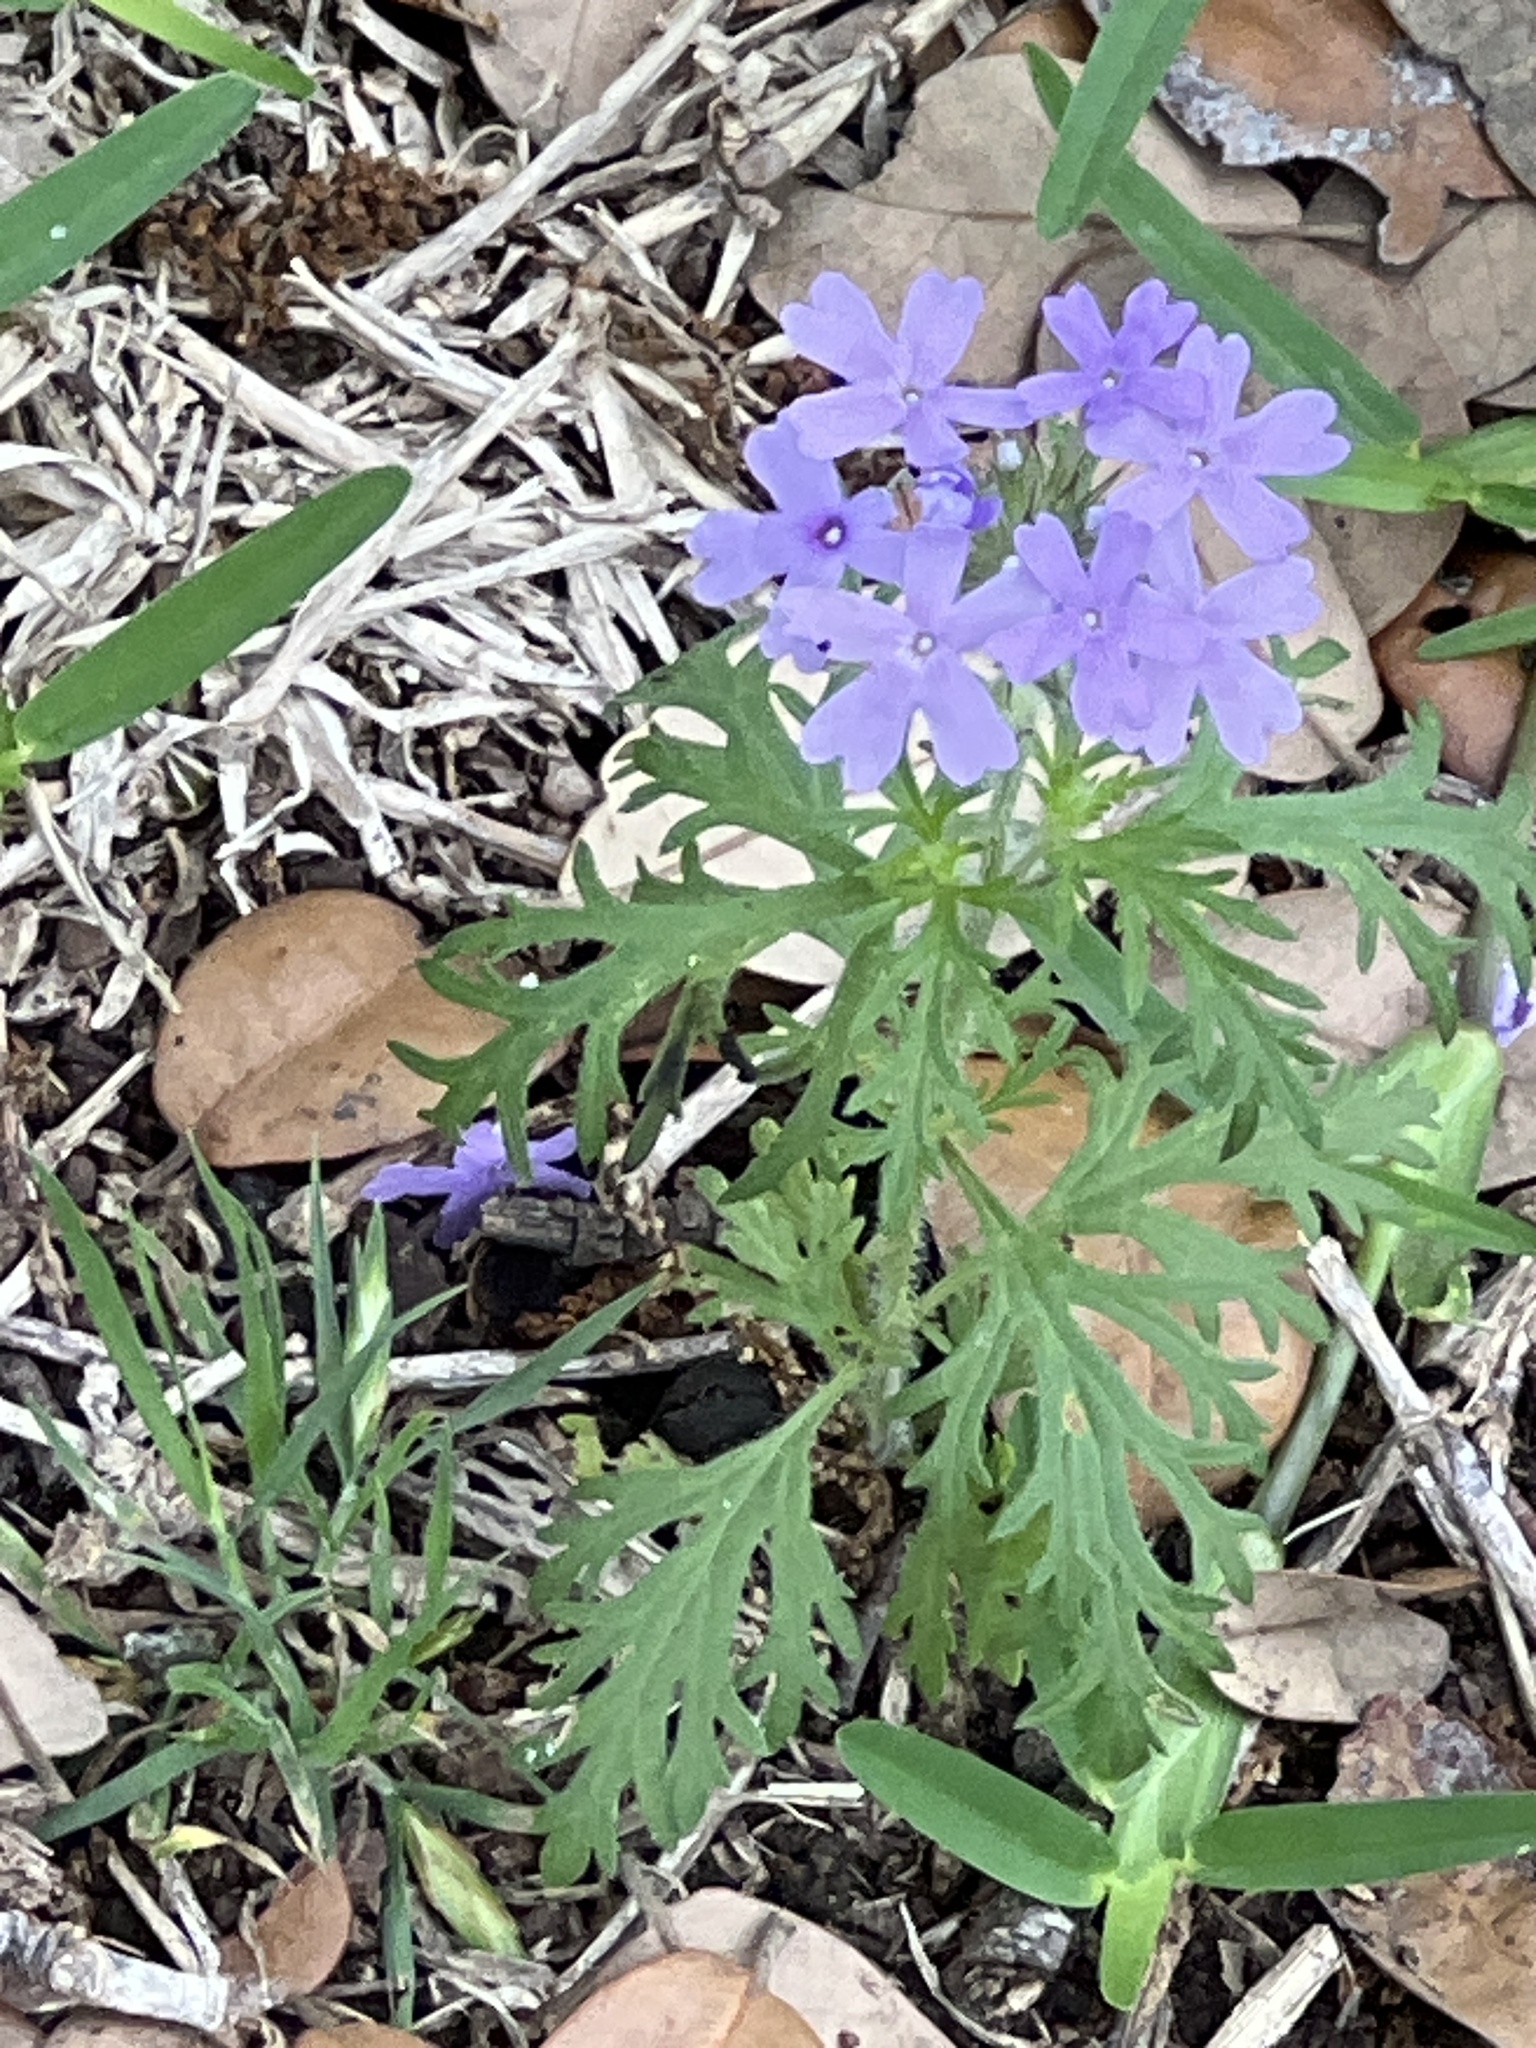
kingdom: Plantae
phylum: Tracheophyta
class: Magnoliopsida
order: Lamiales
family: Verbenaceae
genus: Verbena
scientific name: Verbena bipinnatifida
